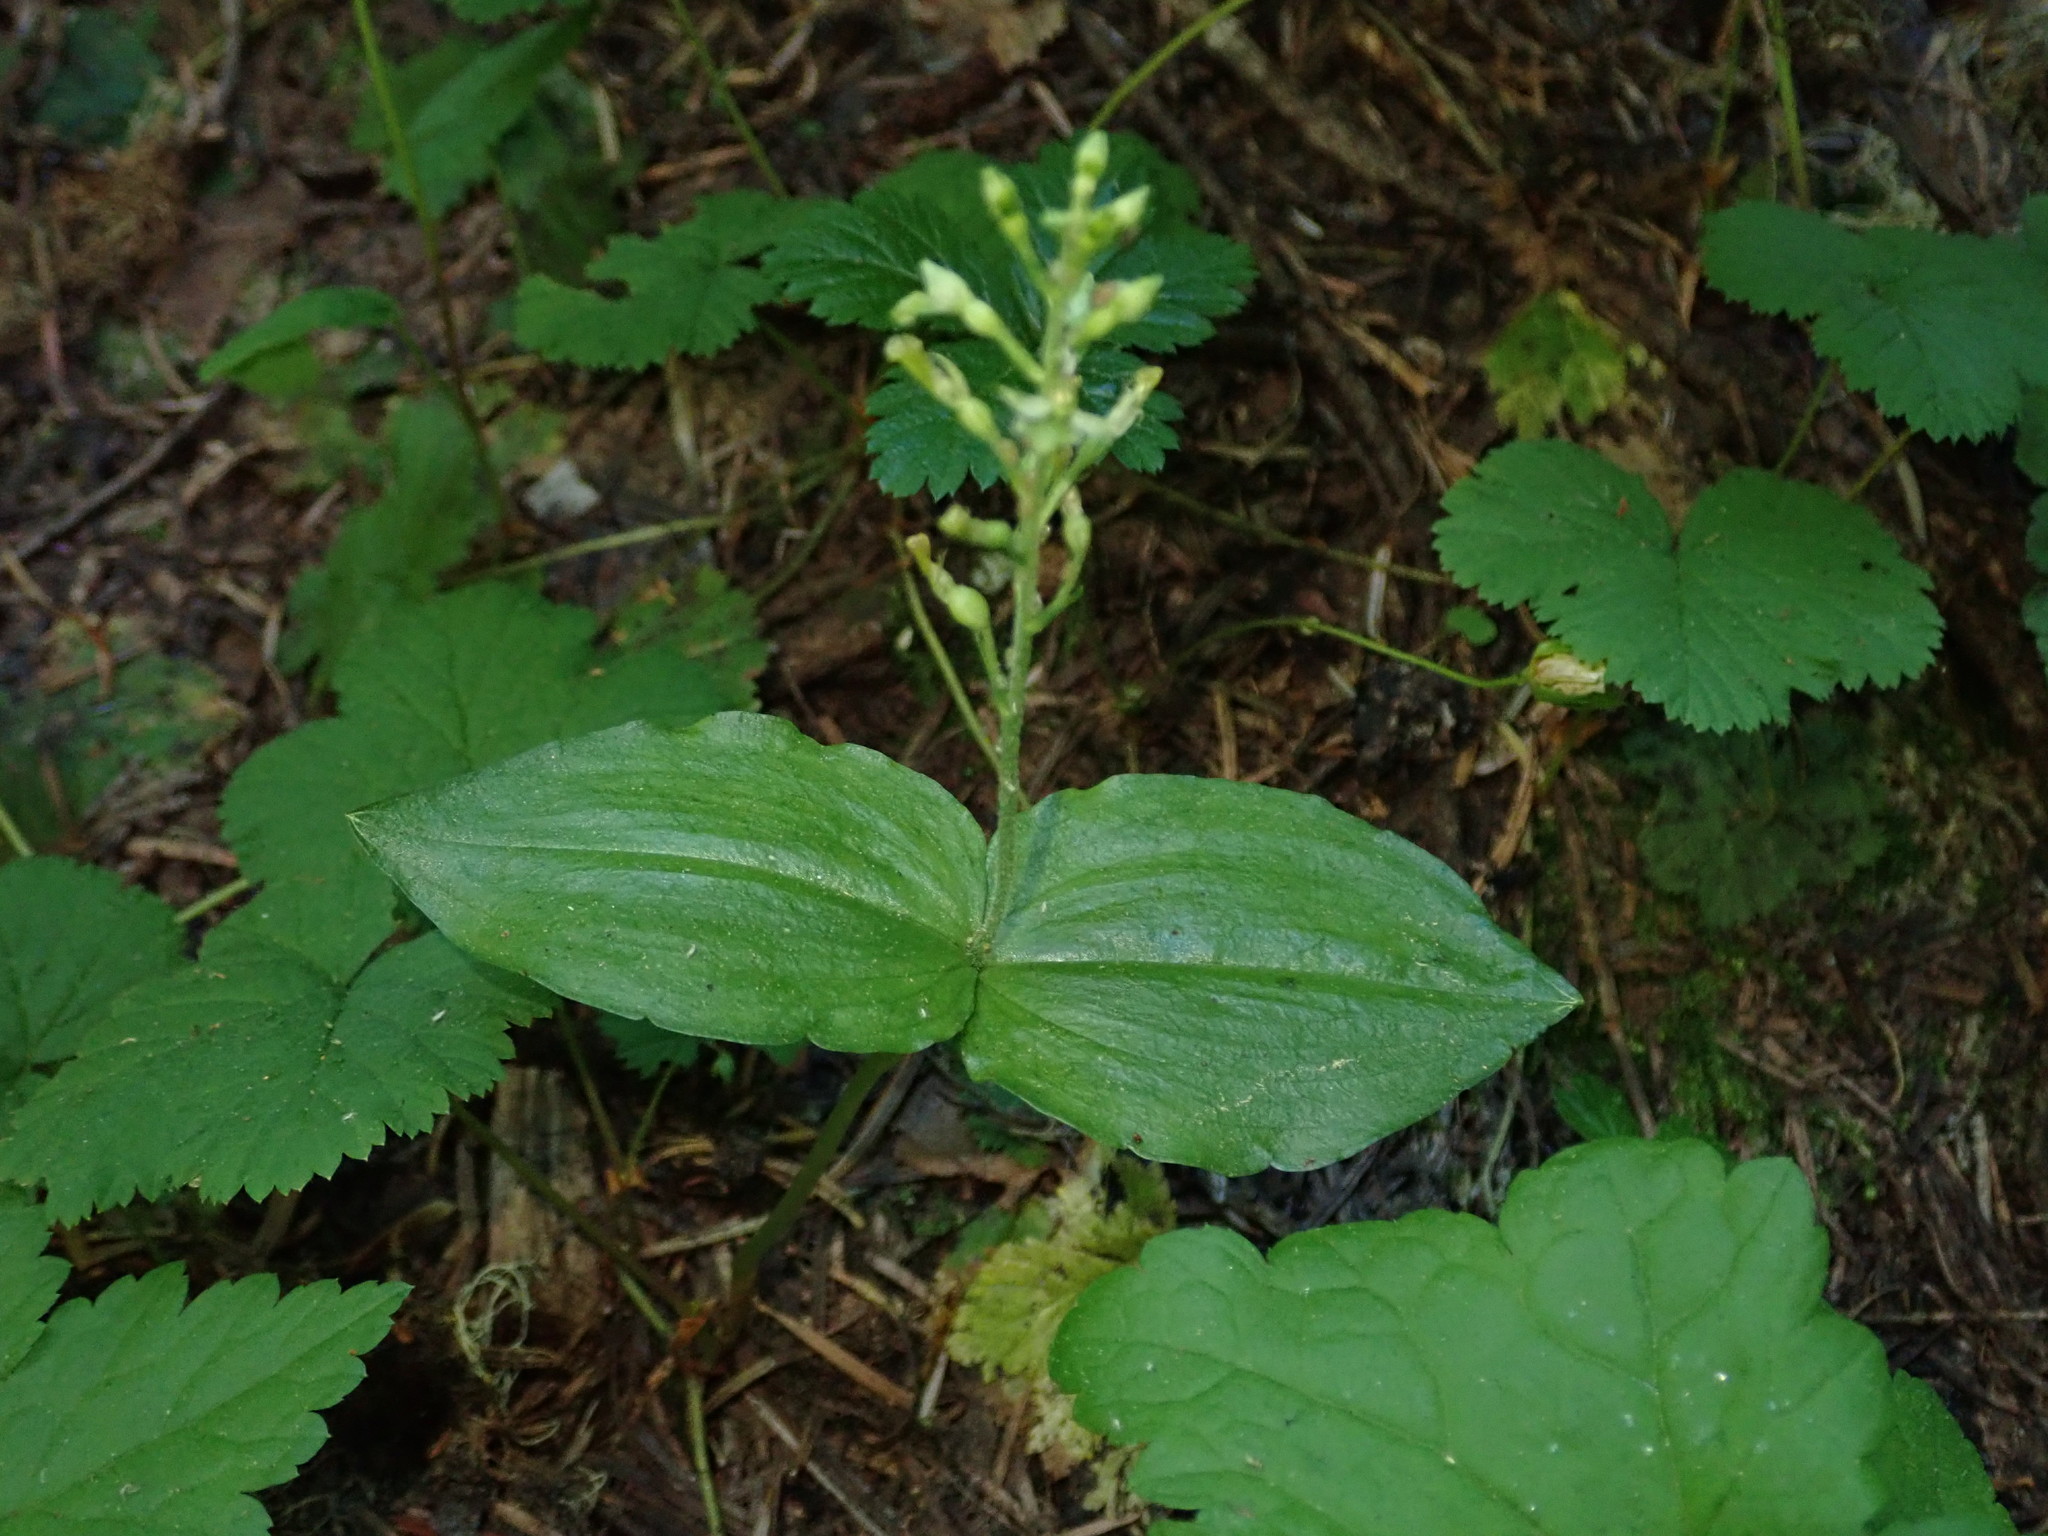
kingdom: Plantae
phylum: Tracheophyta
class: Liliopsida
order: Asparagales
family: Orchidaceae
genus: Neottia
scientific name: Neottia banksiana
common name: Northwestern twayblade
